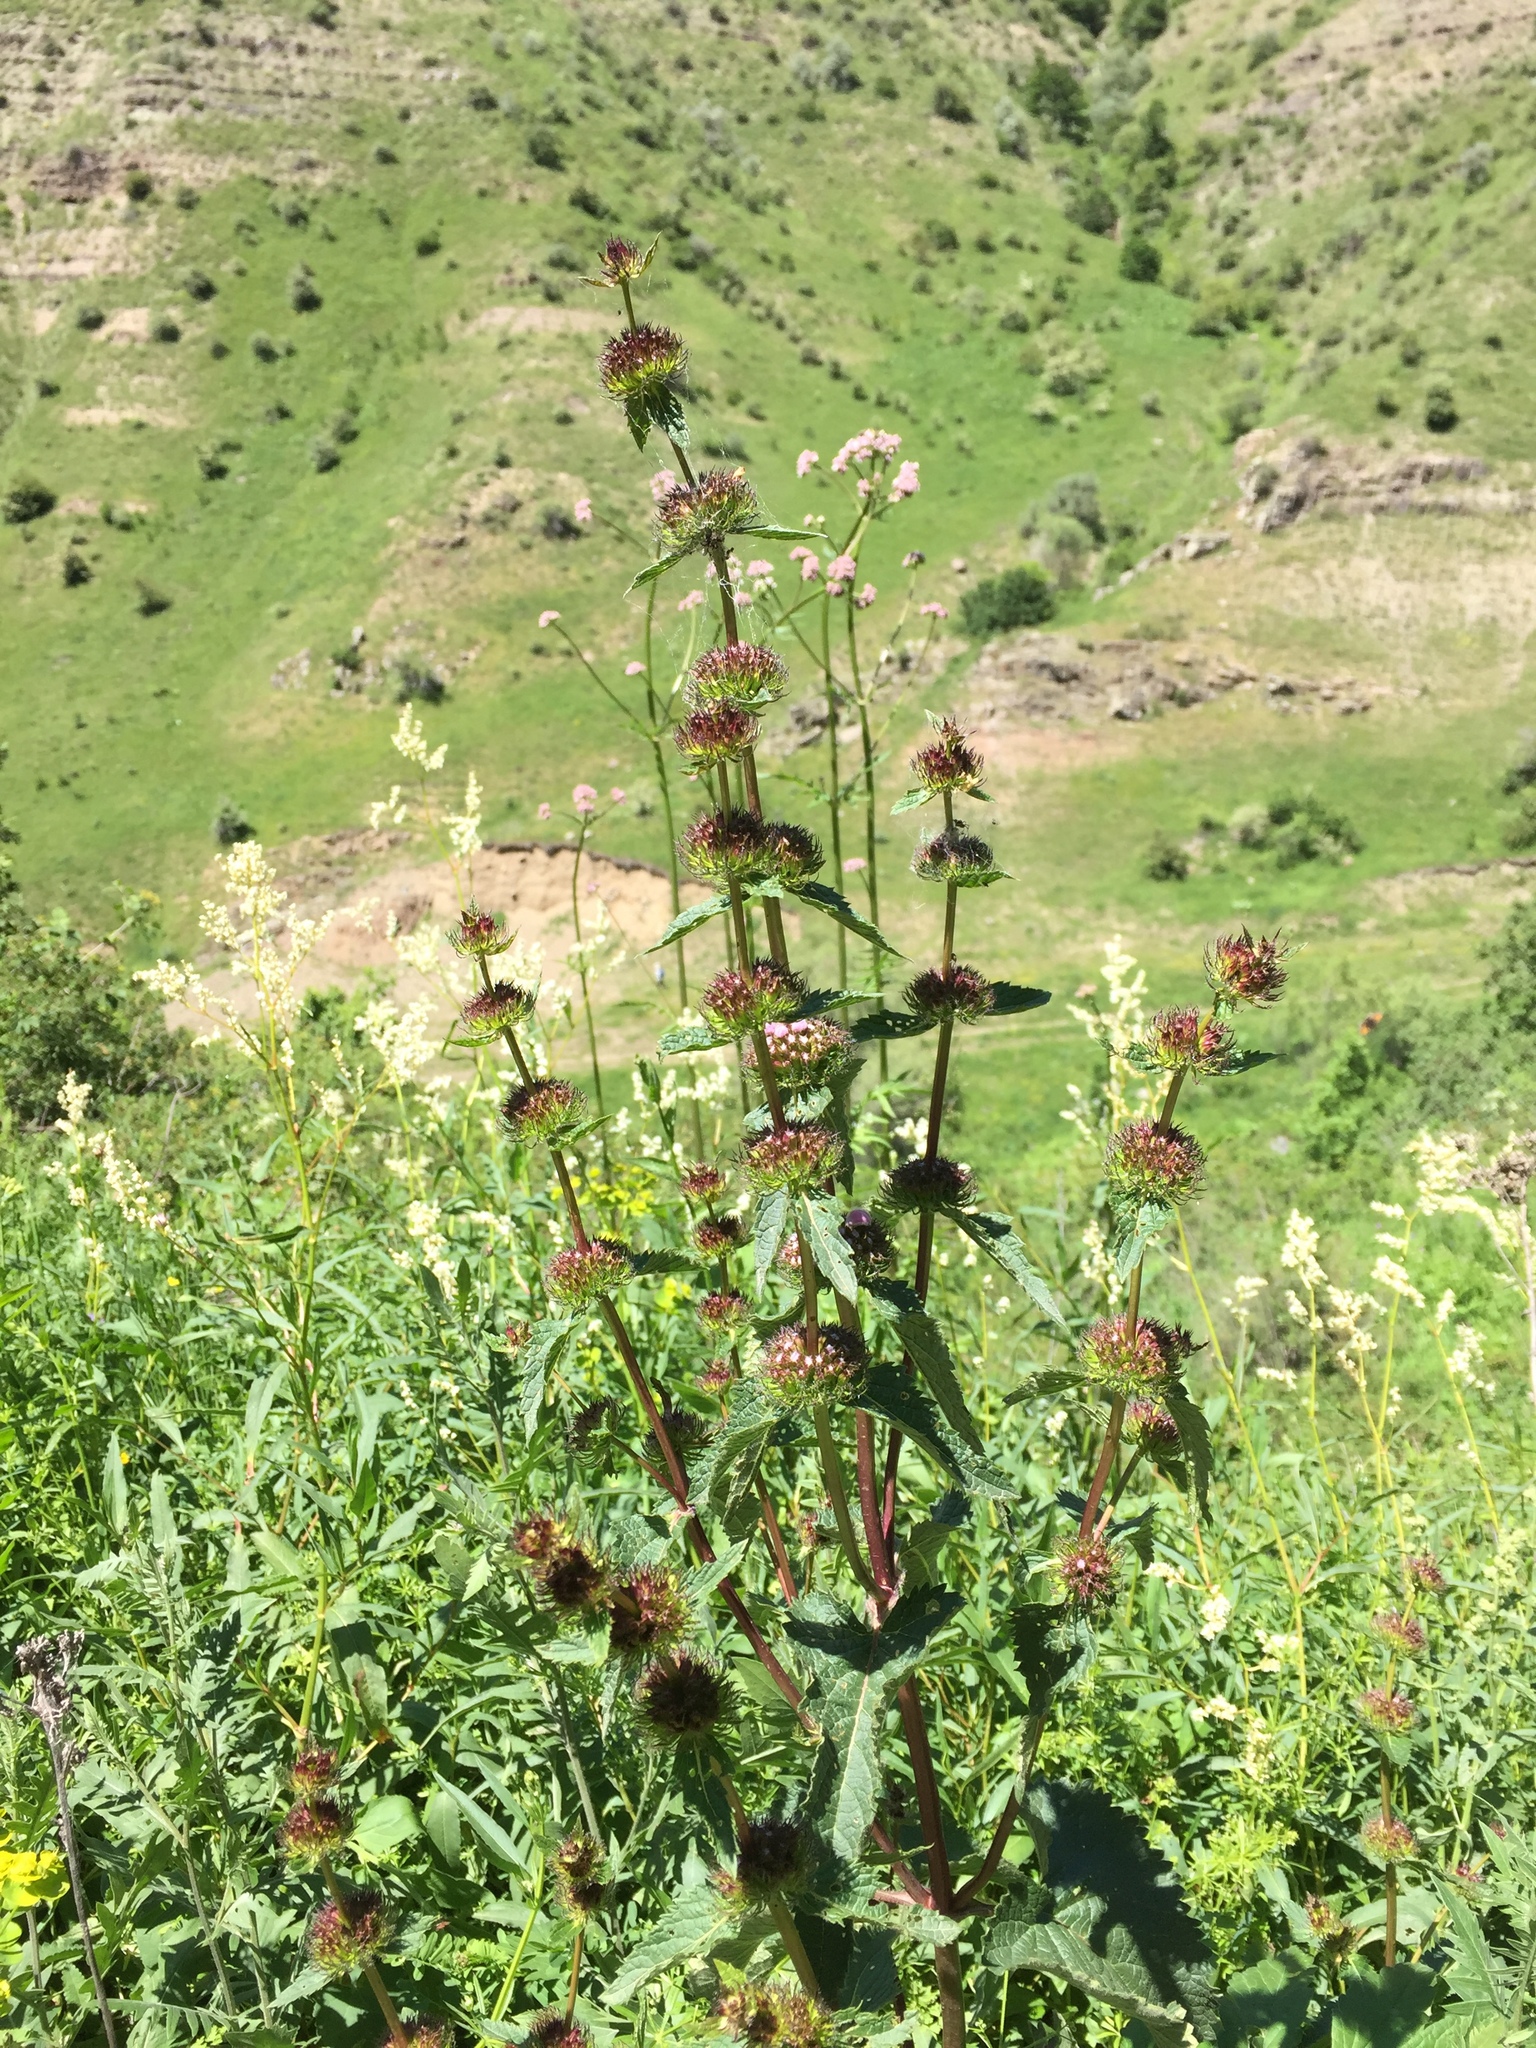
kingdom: Plantae
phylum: Tracheophyta
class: Magnoliopsida
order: Lamiales
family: Lamiaceae
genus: Phlomoides
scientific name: Phlomoides tuberosa
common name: Tuberous jerusalem sage
